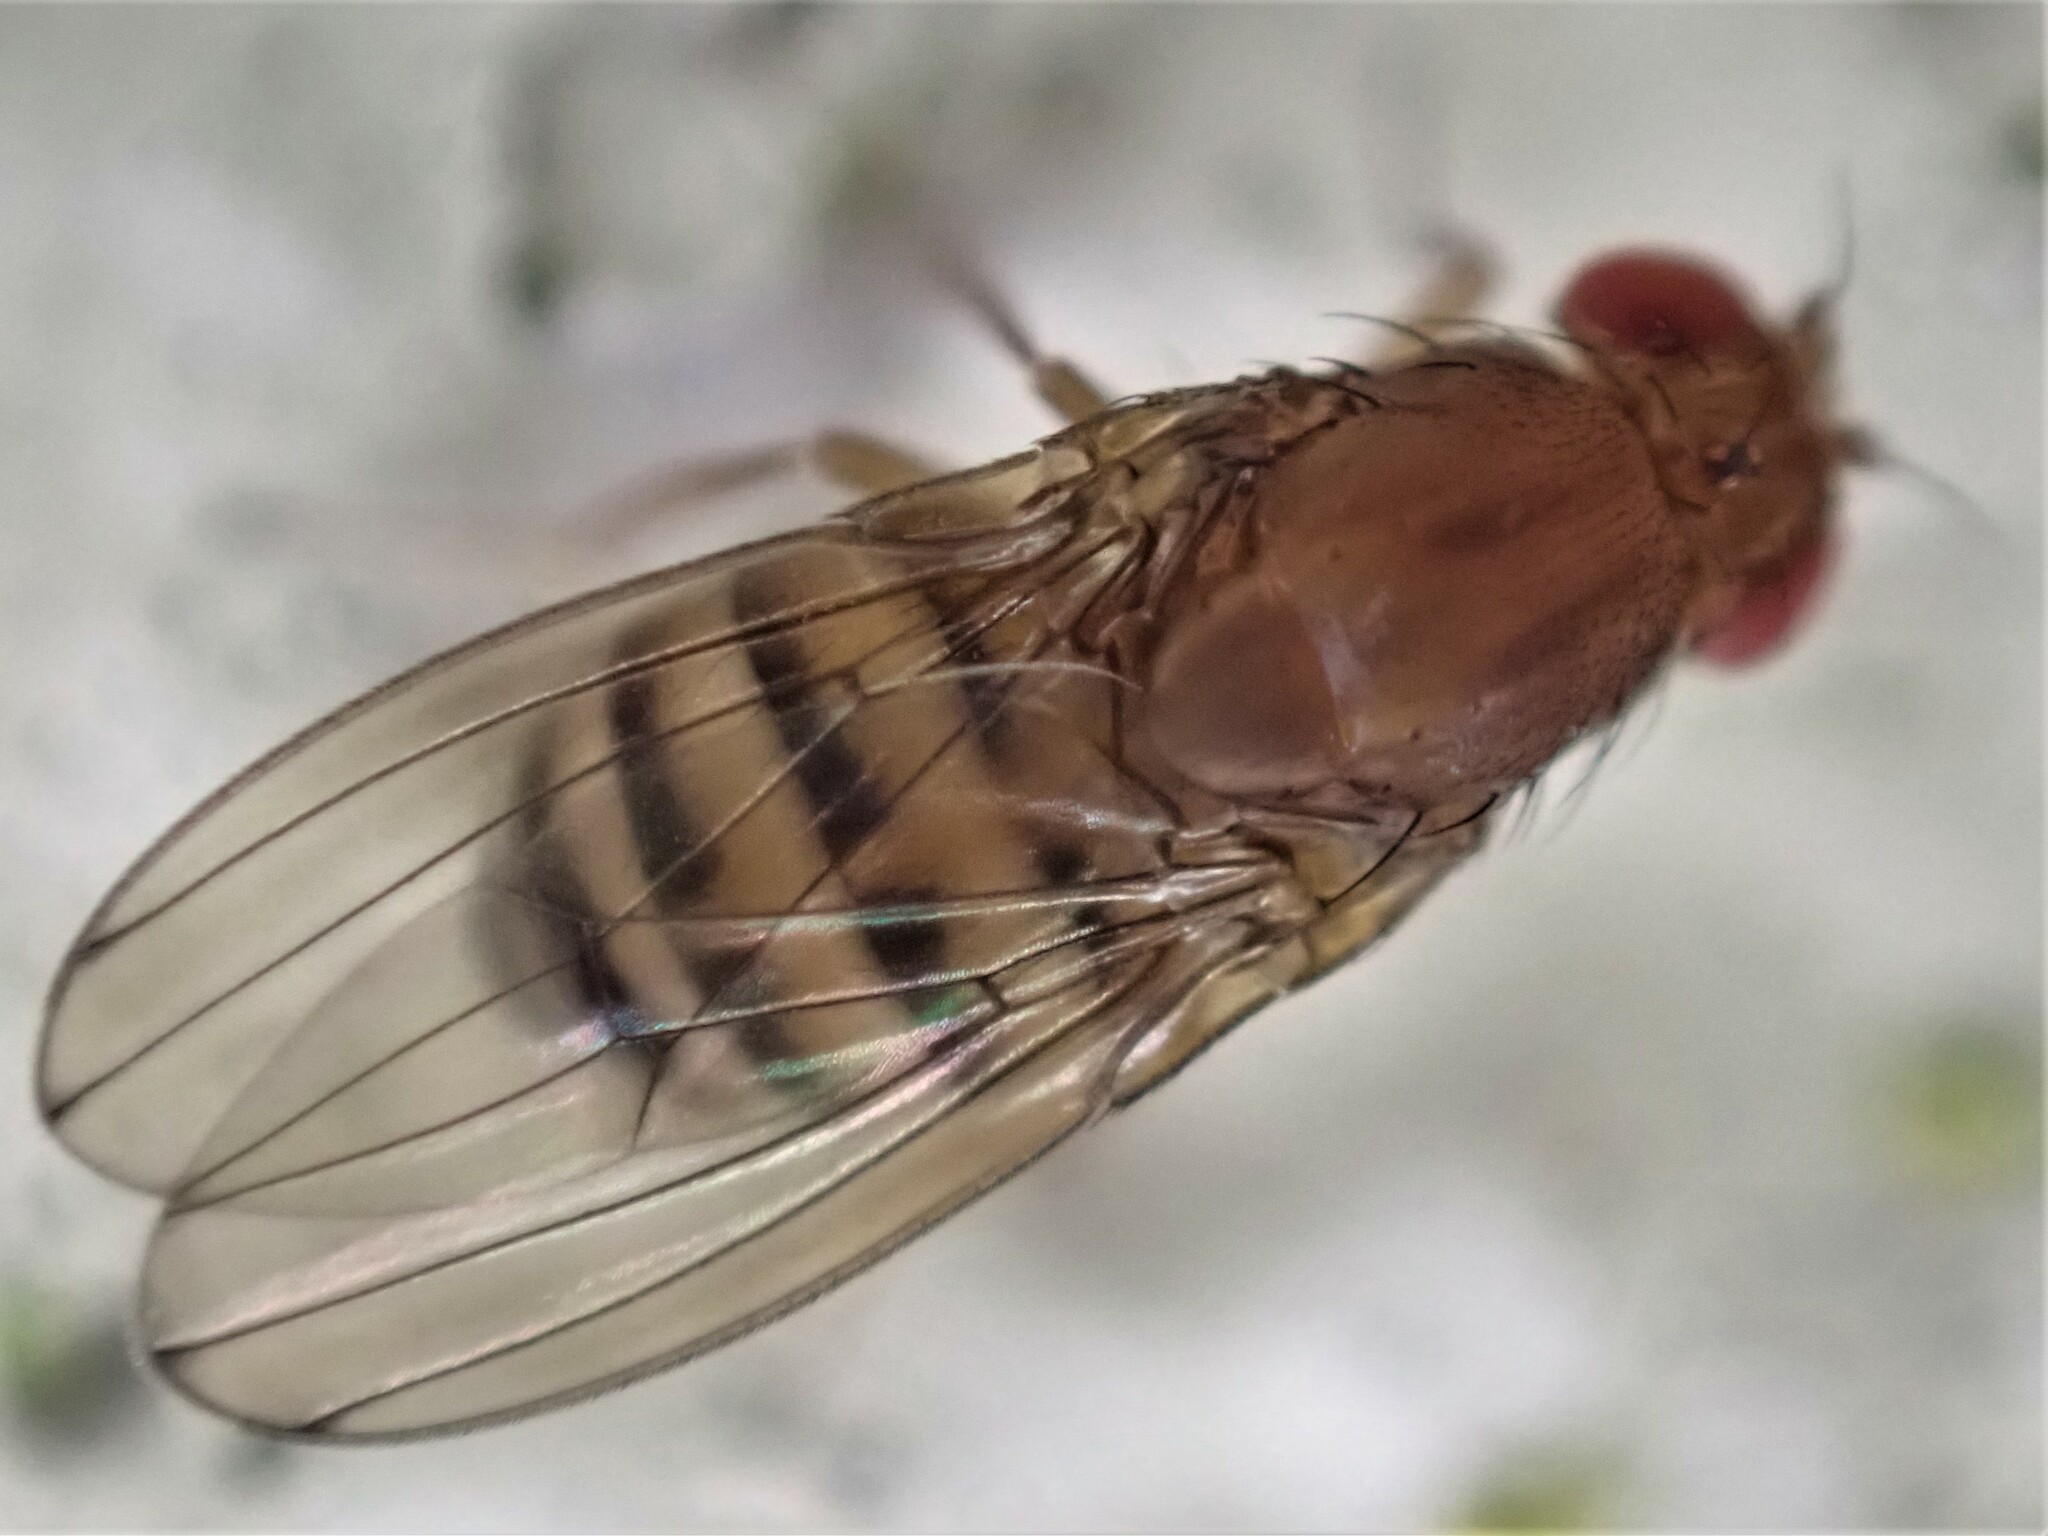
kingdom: Animalia
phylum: Arthropoda
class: Insecta
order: Diptera
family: Drosophilidae
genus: Drosophila
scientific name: Drosophila immigrans
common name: Pomace fly
